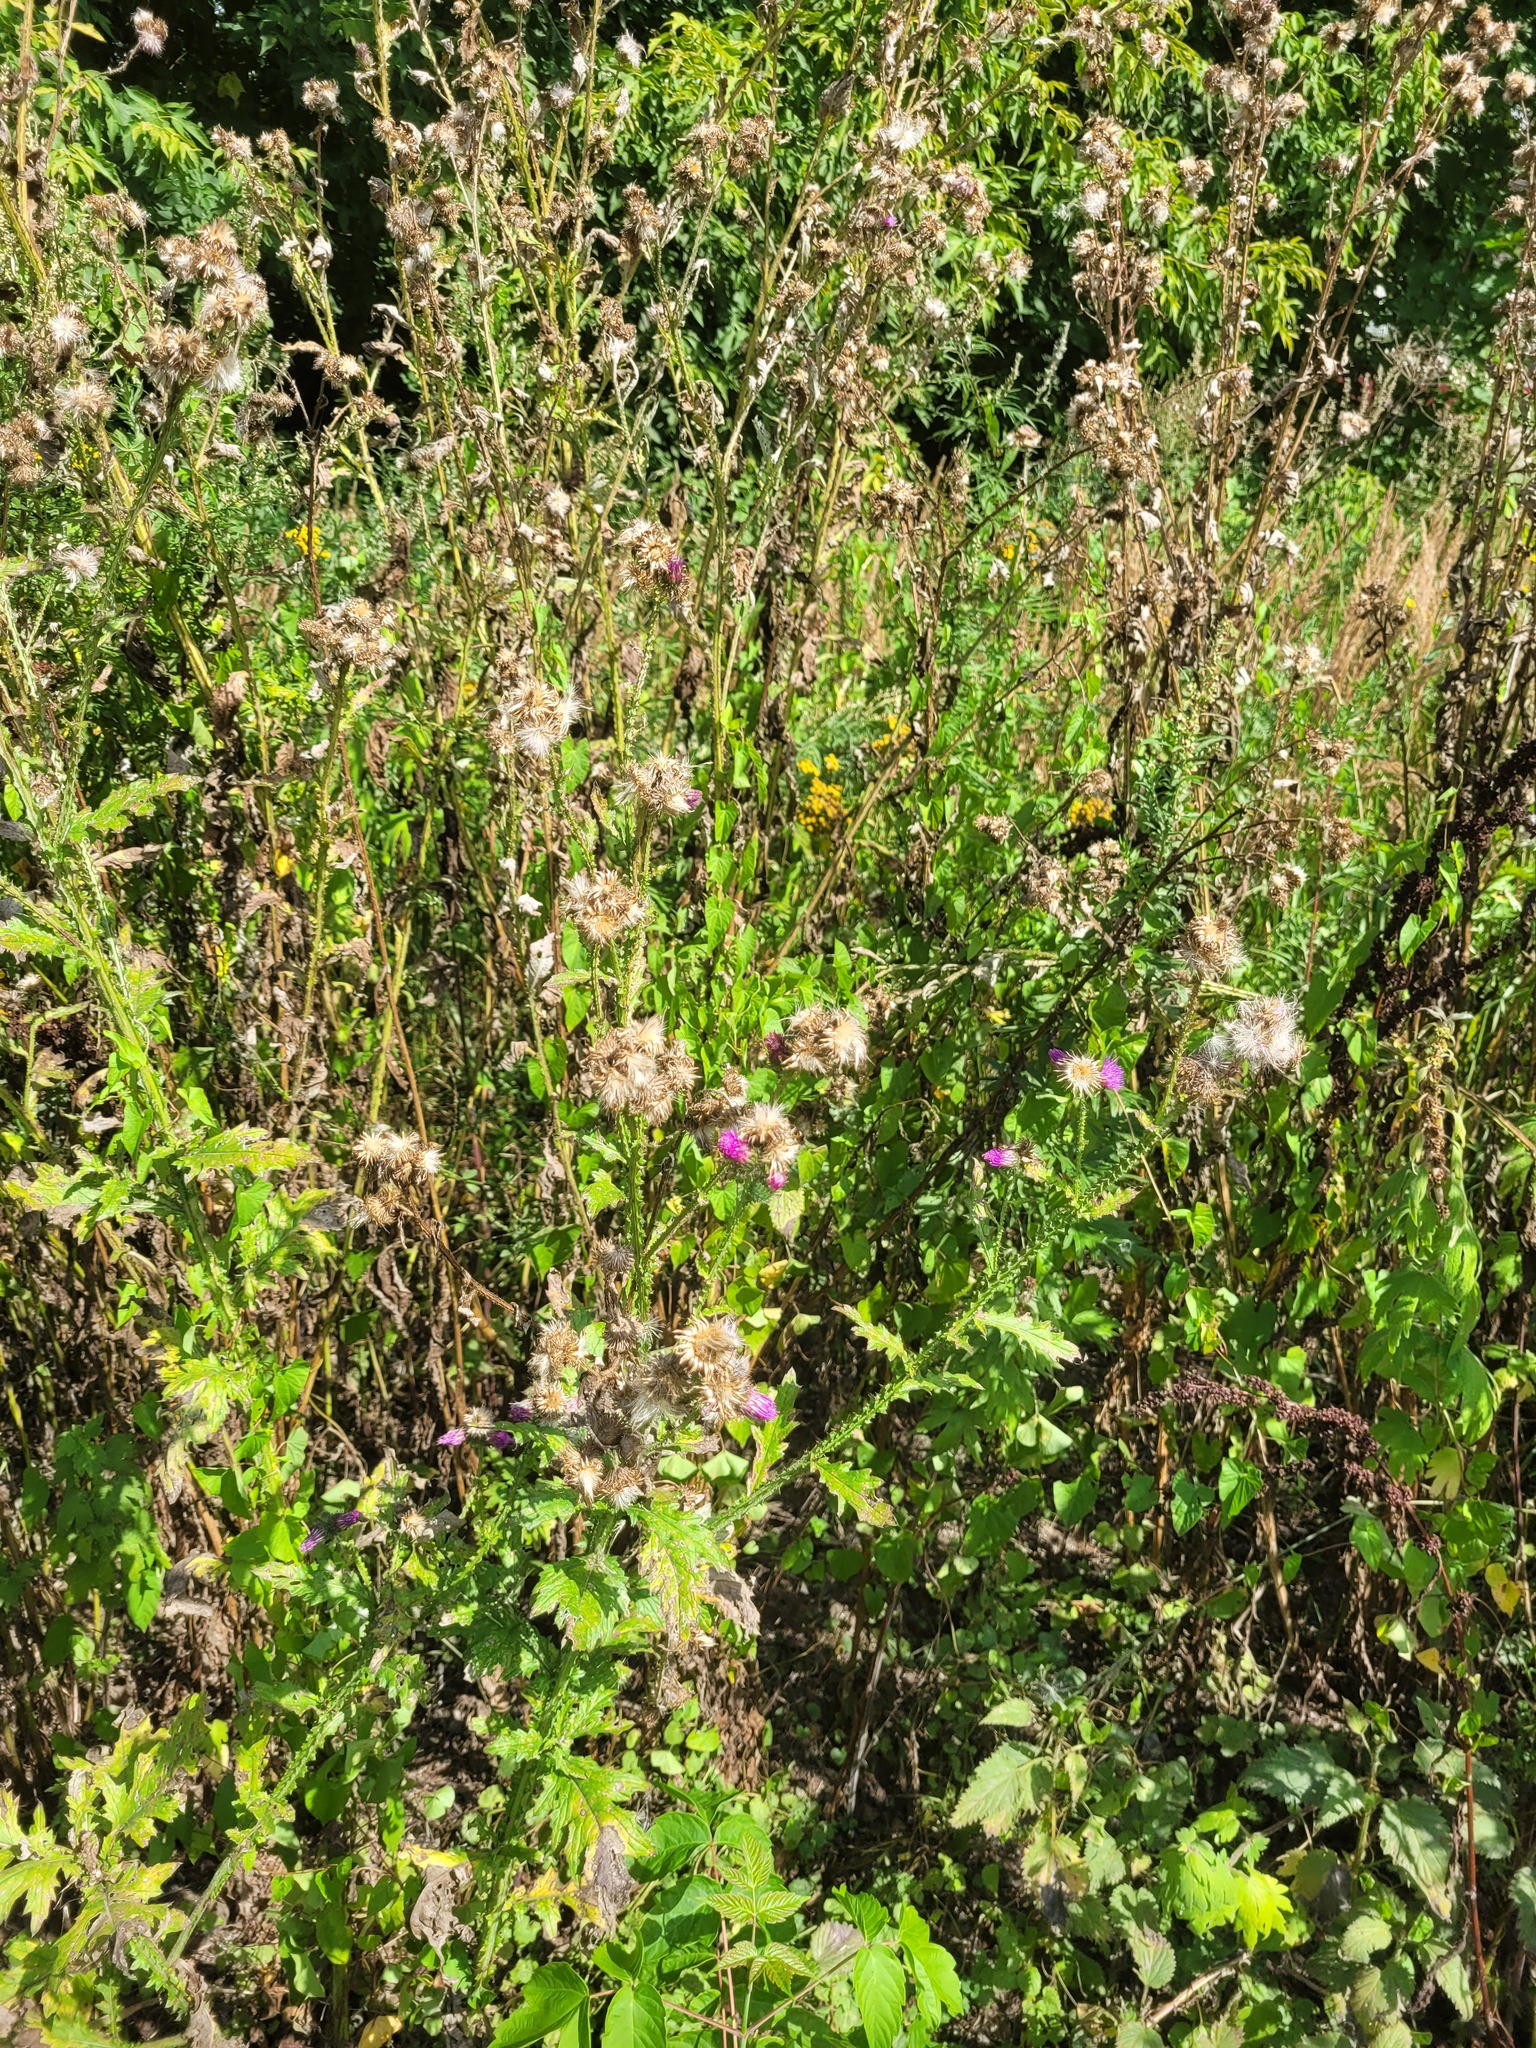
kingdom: Plantae
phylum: Tracheophyta
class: Magnoliopsida
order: Asterales
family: Asteraceae
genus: Carduus
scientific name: Carduus crispus
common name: Welted thistle
